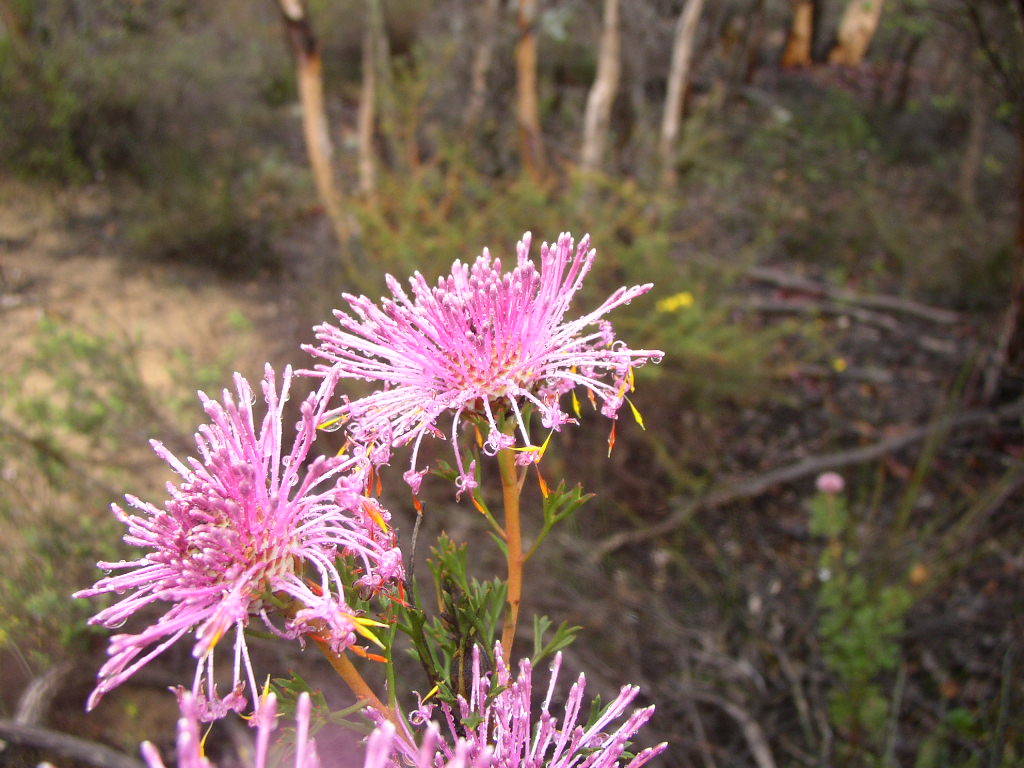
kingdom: Plantae
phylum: Tracheophyta
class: Magnoliopsida
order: Proteales
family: Proteaceae
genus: Isopogon
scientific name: Isopogon dubius
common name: Pincushion-coneflower
